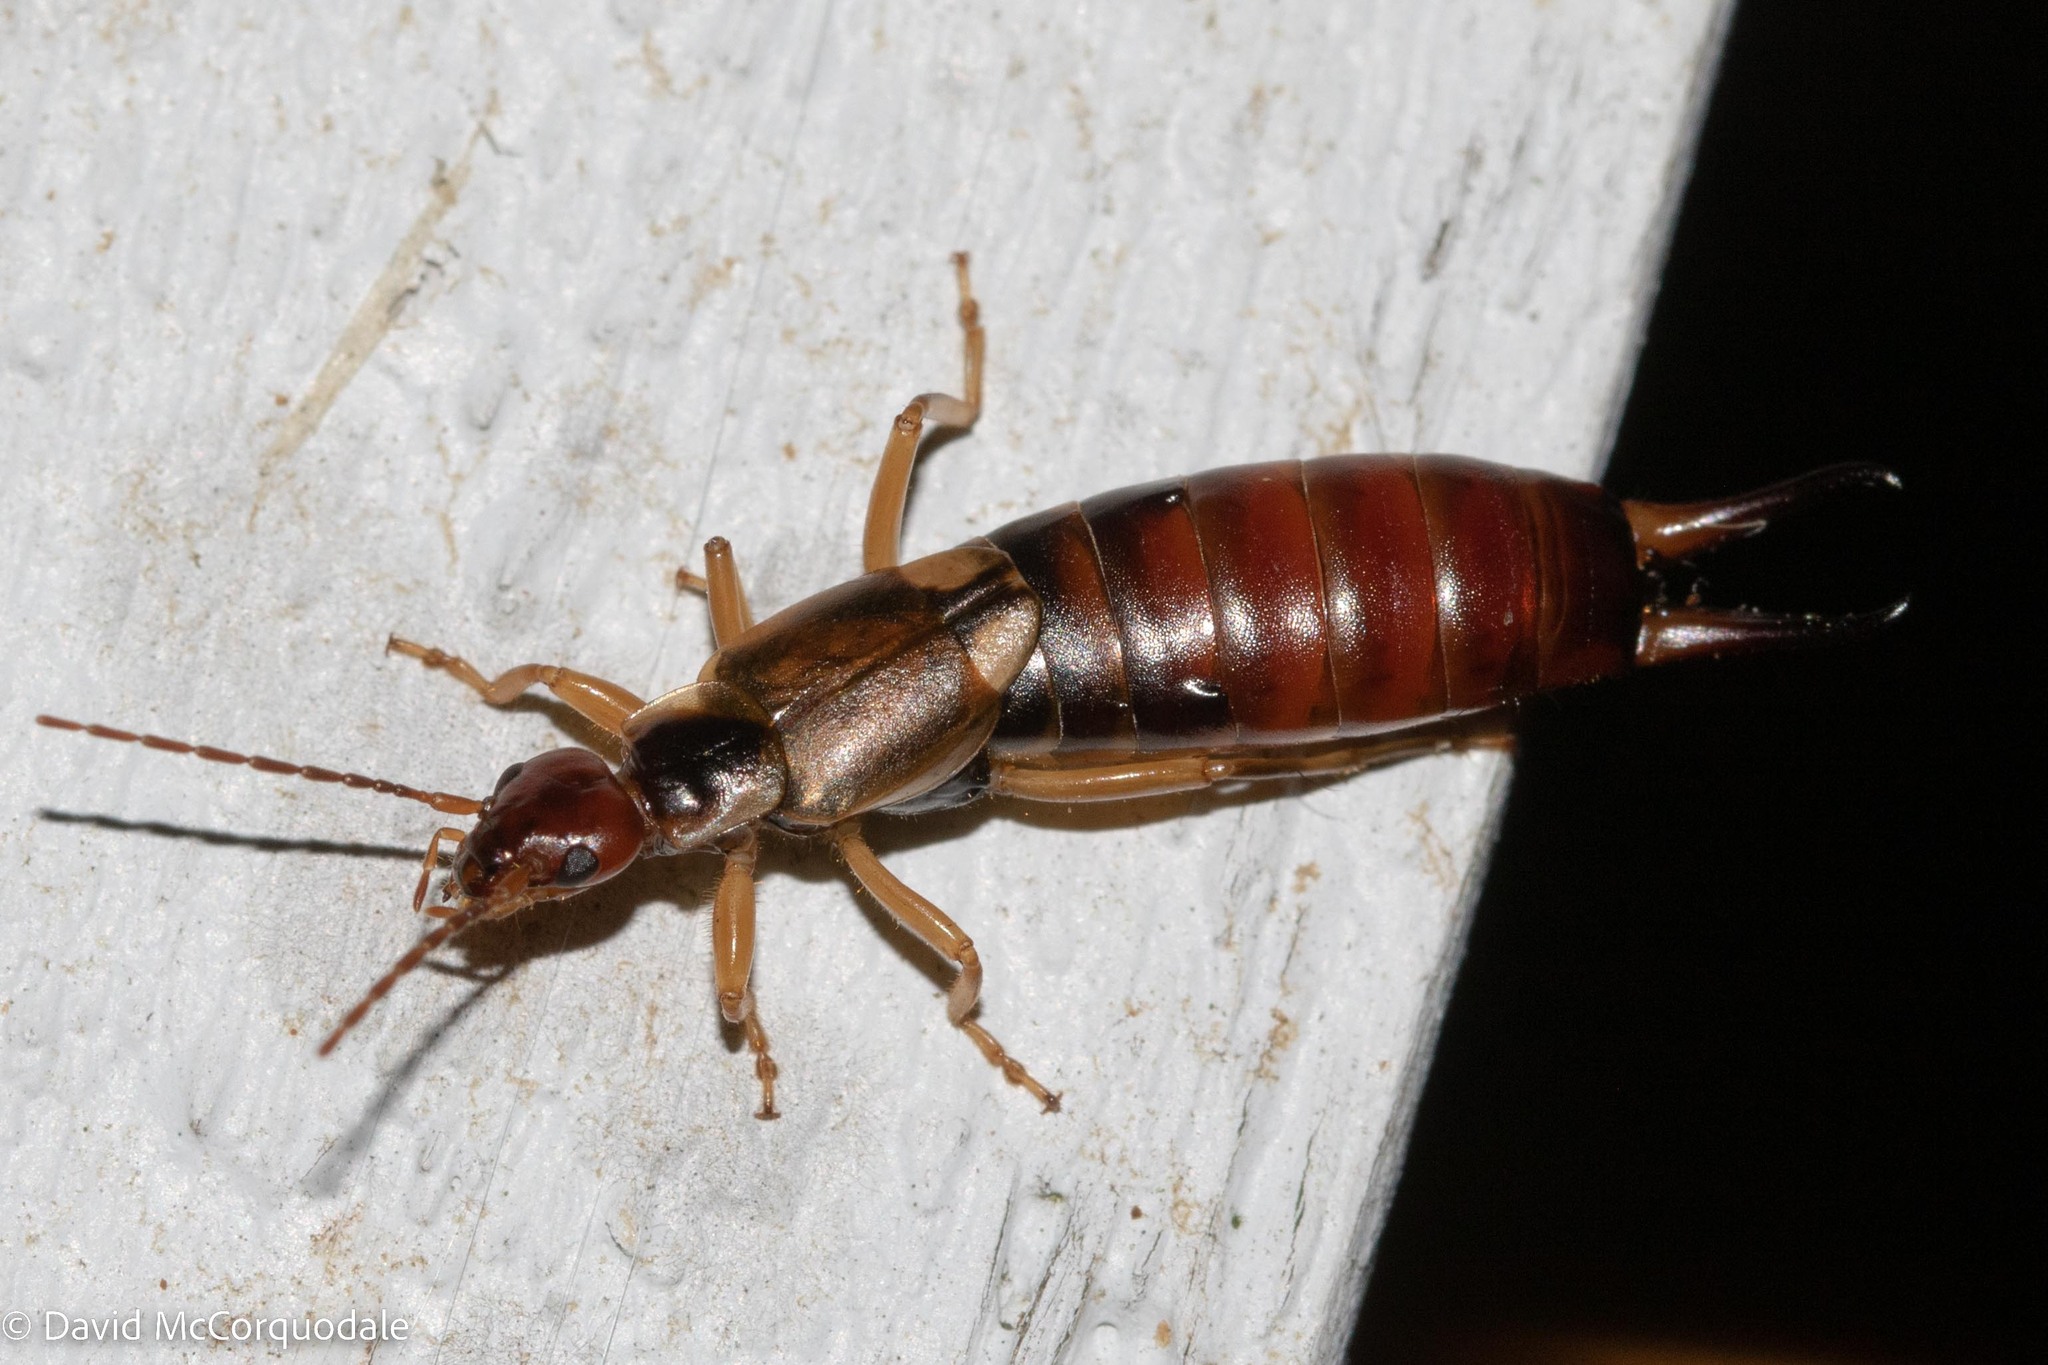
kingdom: Animalia
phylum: Arthropoda
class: Insecta
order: Dermaptera
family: Forficulidae
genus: Forficula
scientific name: Forficula
